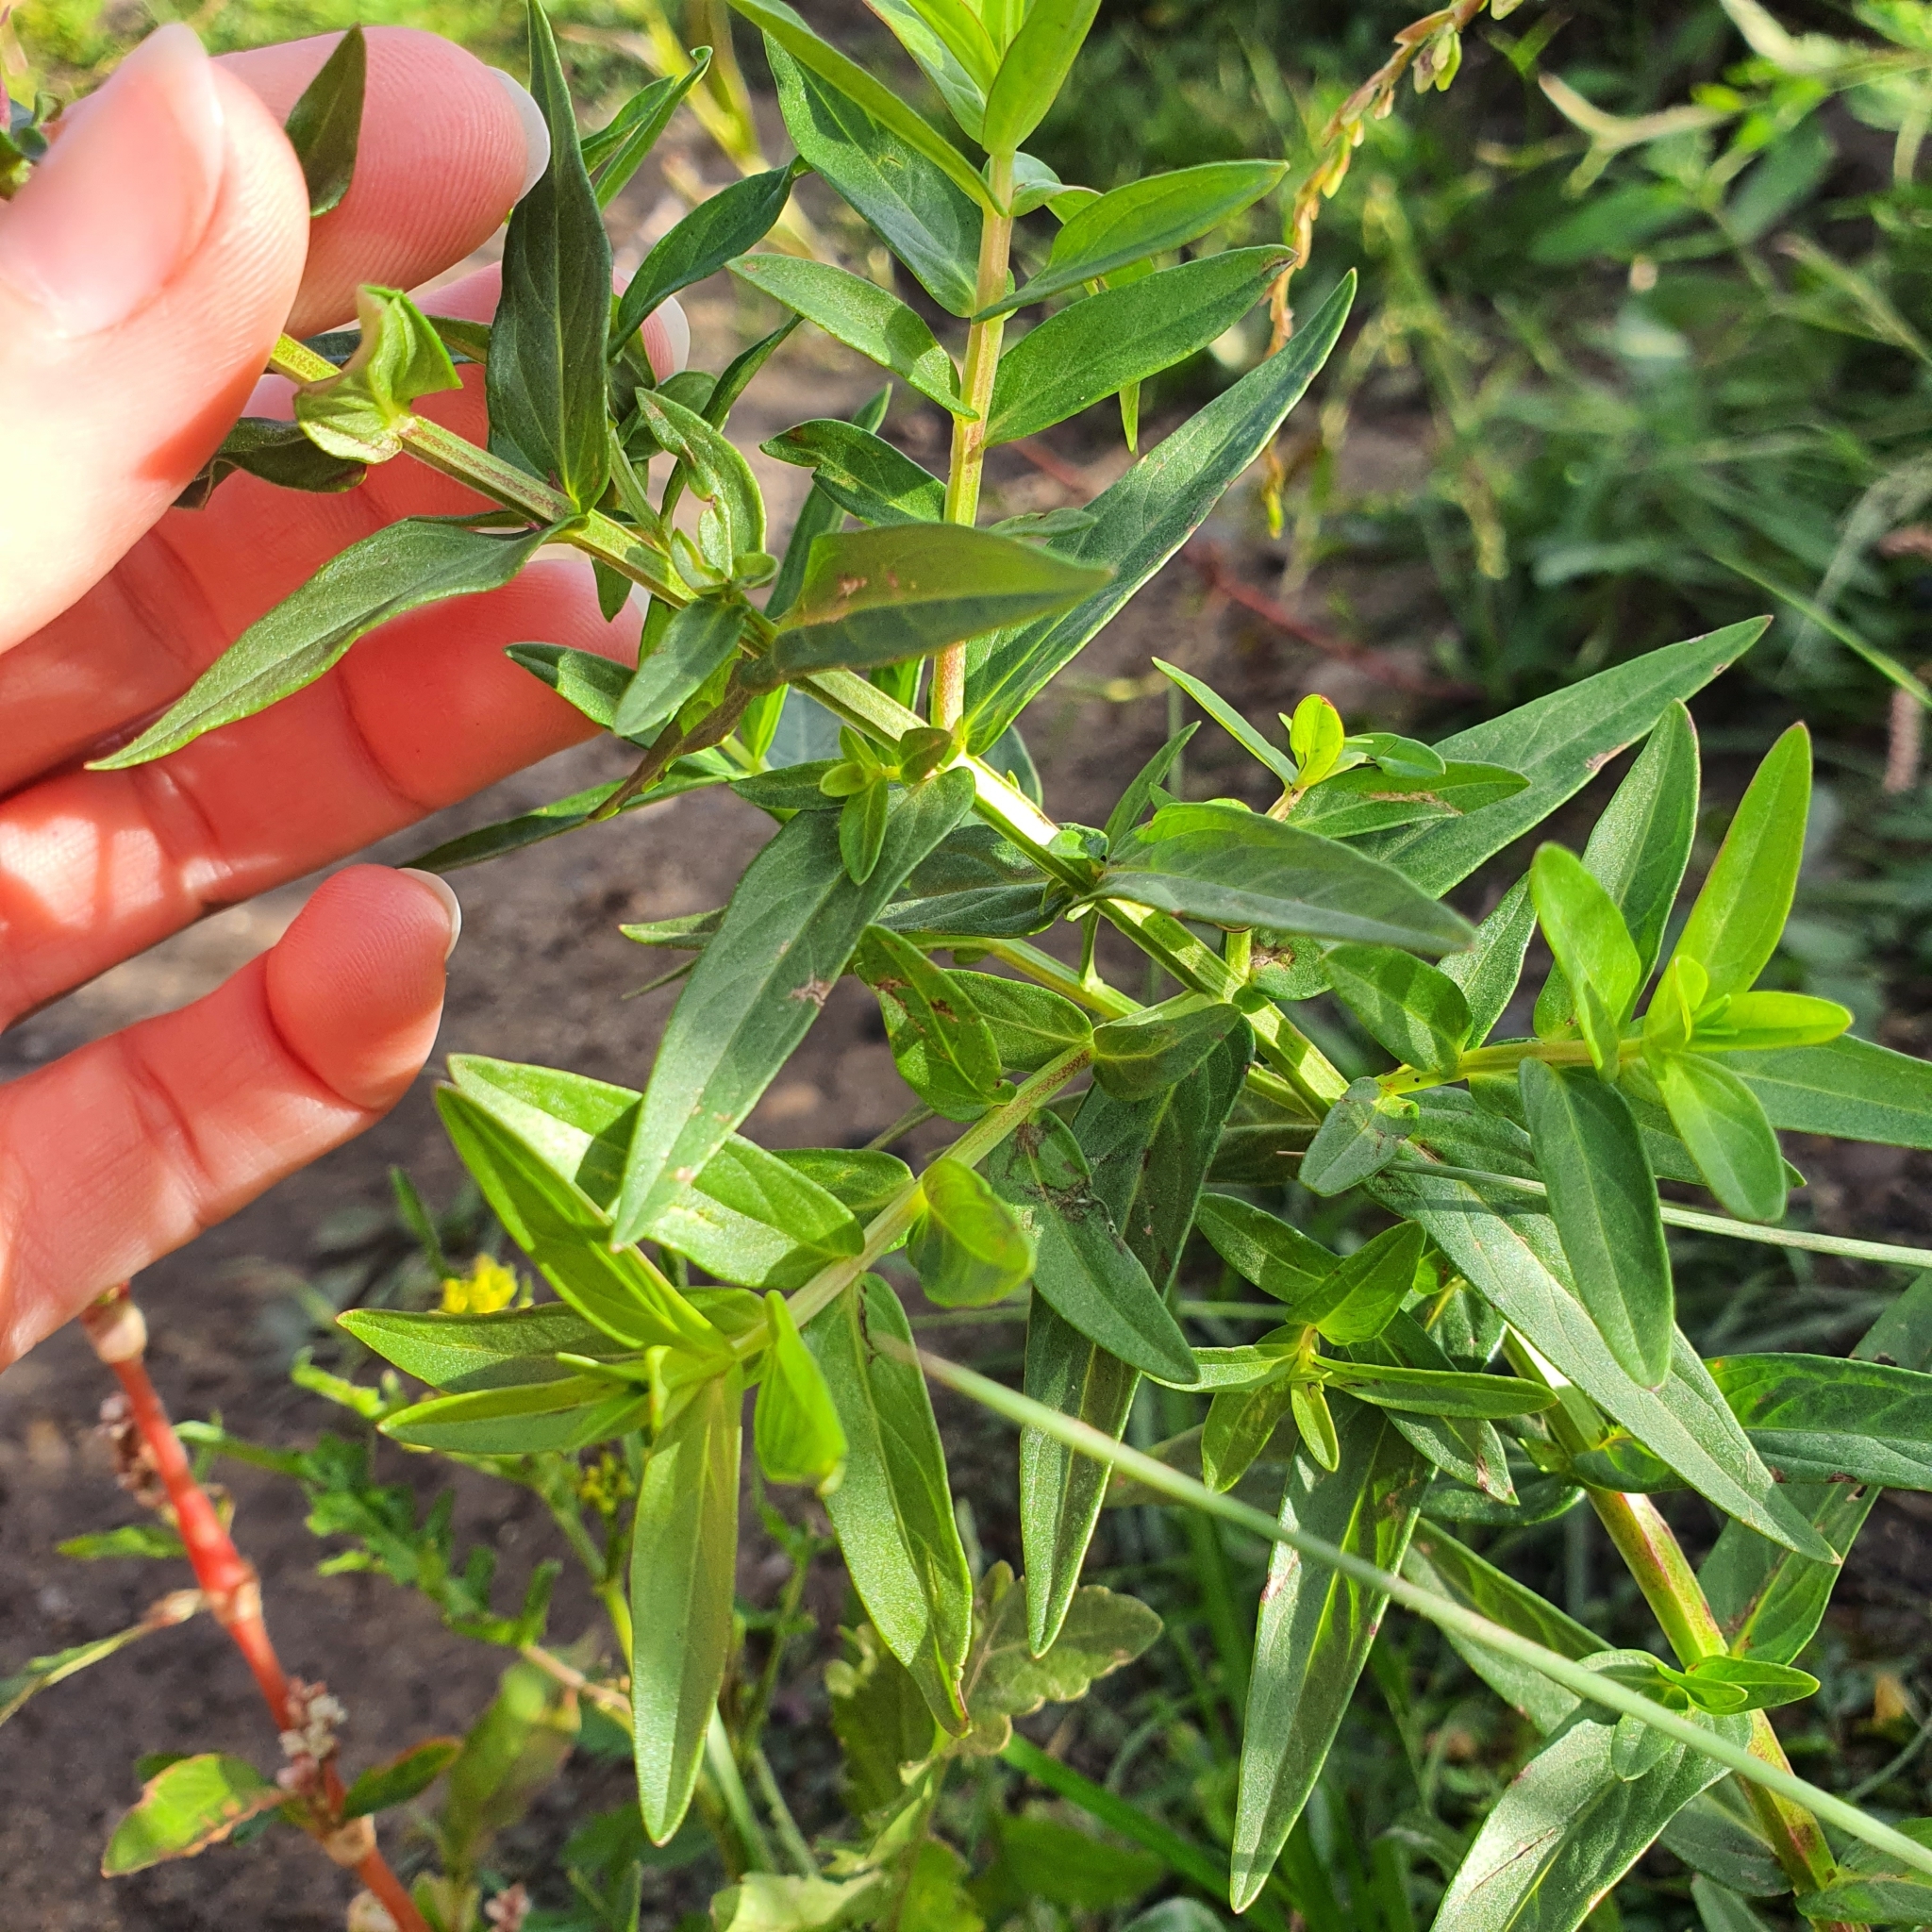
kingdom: Plantae
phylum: Tracheophyta
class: Magnoliopsida
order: Myrtales
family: Lythraceae
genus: Lythrum
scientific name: Lythrum salicaria
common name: Purple loosestrife
